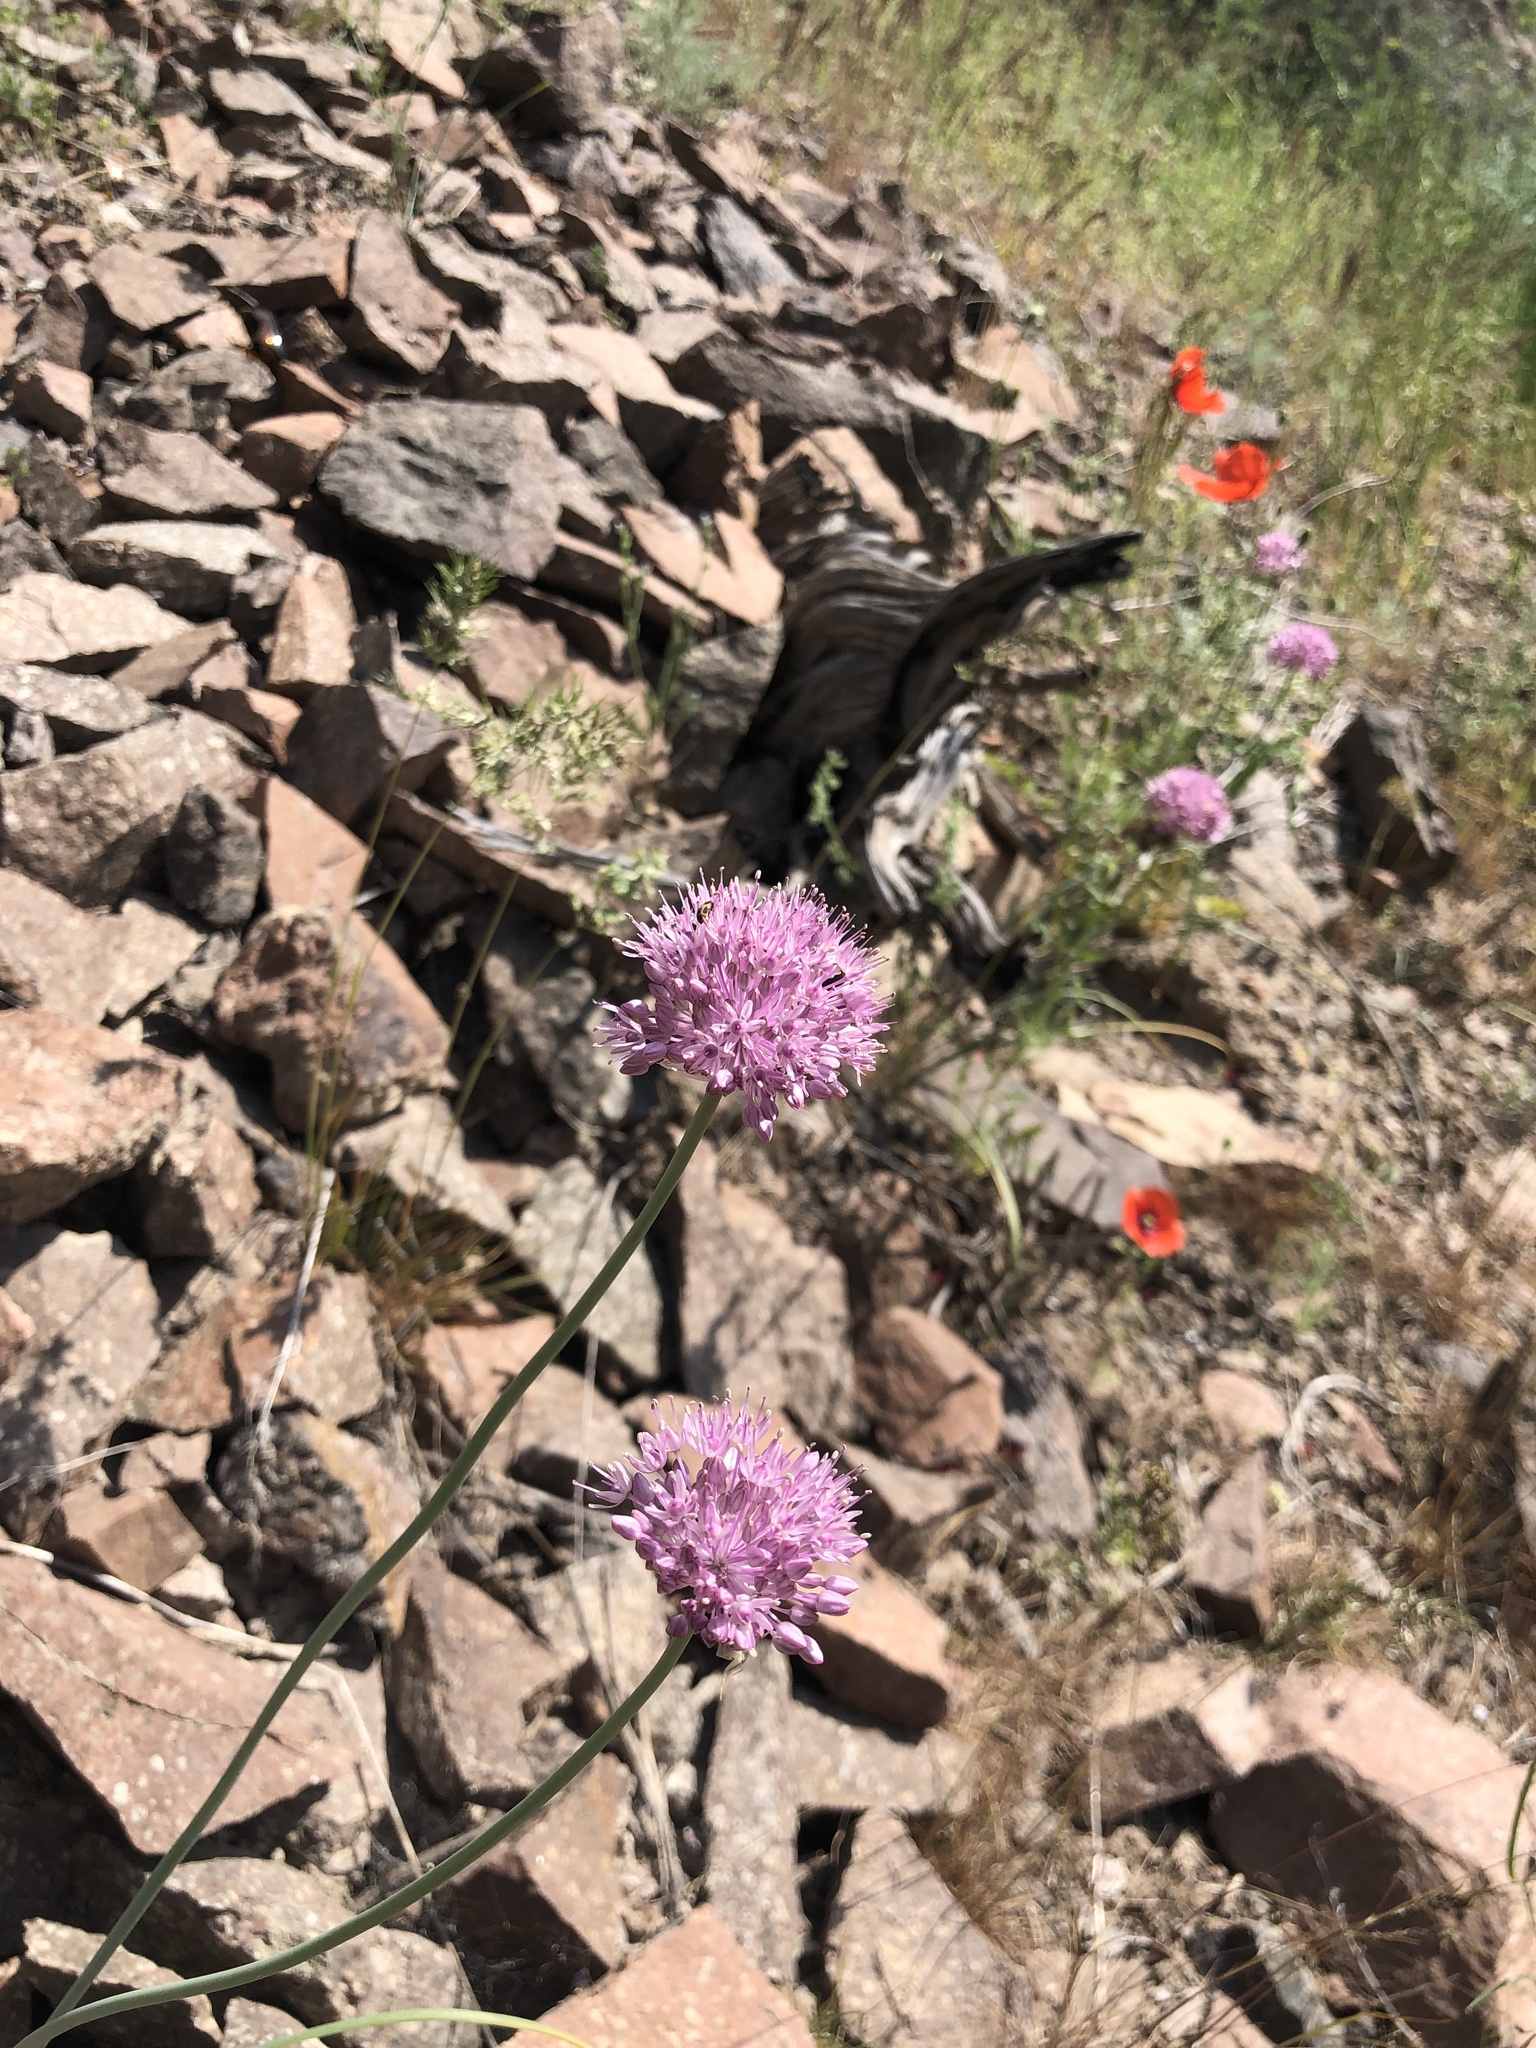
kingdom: Plantae
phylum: Tracheophyta
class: Liliopsida
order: Asparagales
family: Amaryllidaceae
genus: Allium
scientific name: Allium pallasii
